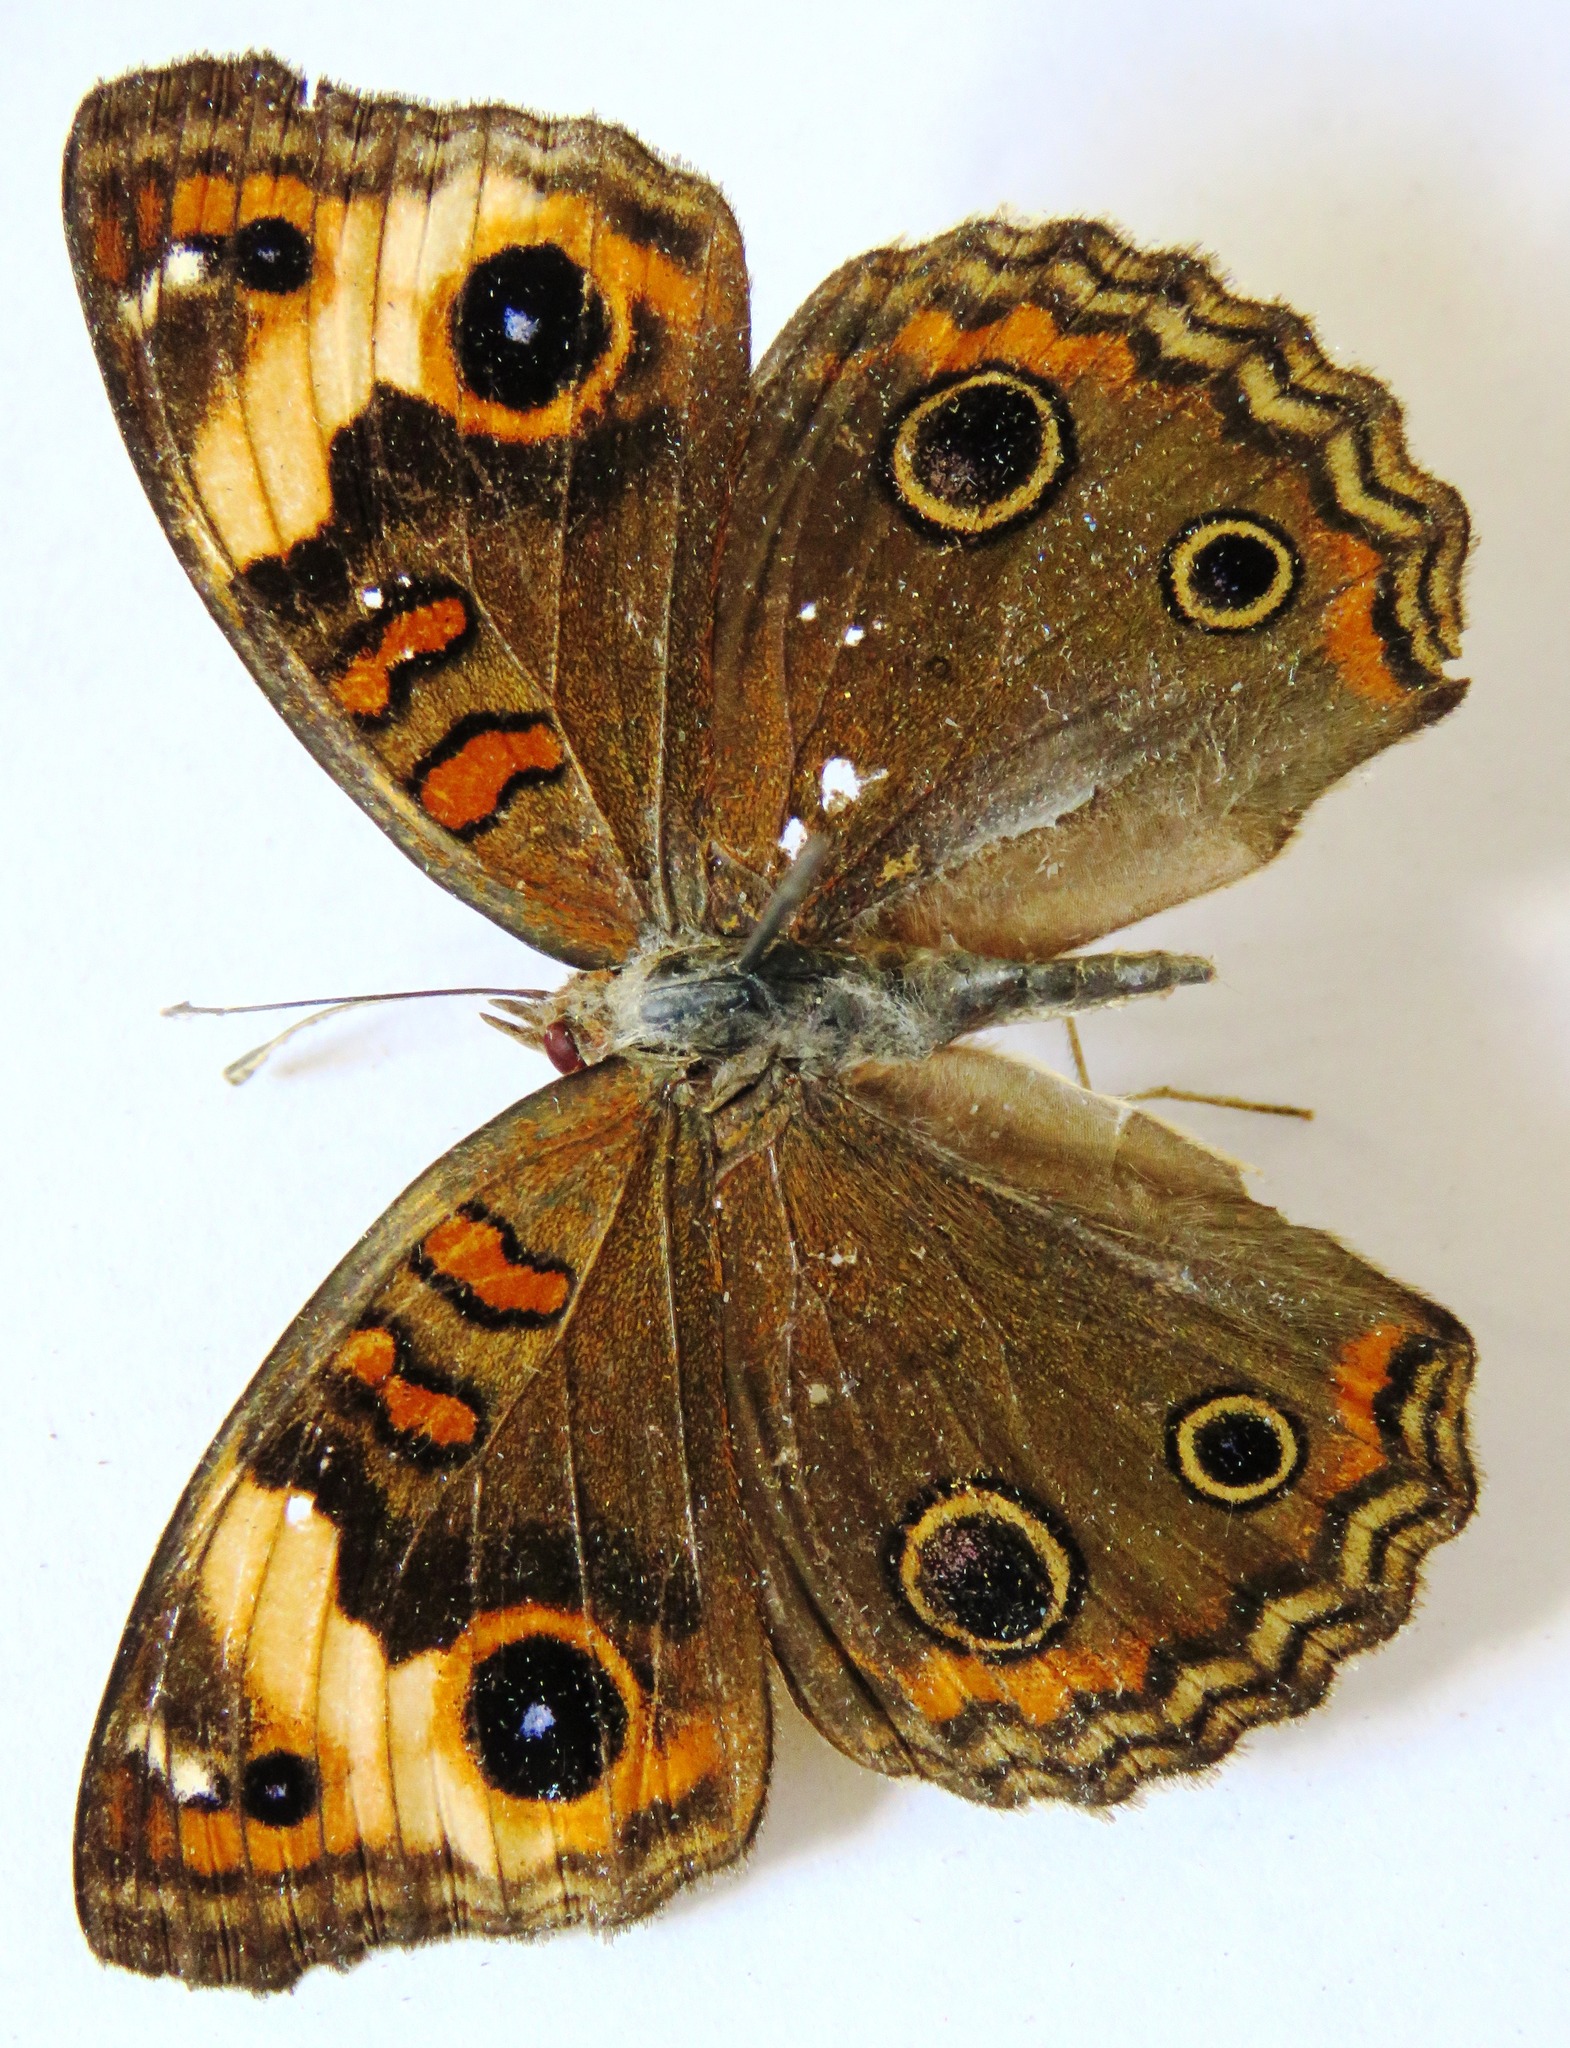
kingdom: Animalia
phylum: Arthropoda
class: Insecta
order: Lepidoptera
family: Nymphalidae
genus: Junonia
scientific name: Junonia lavinia
